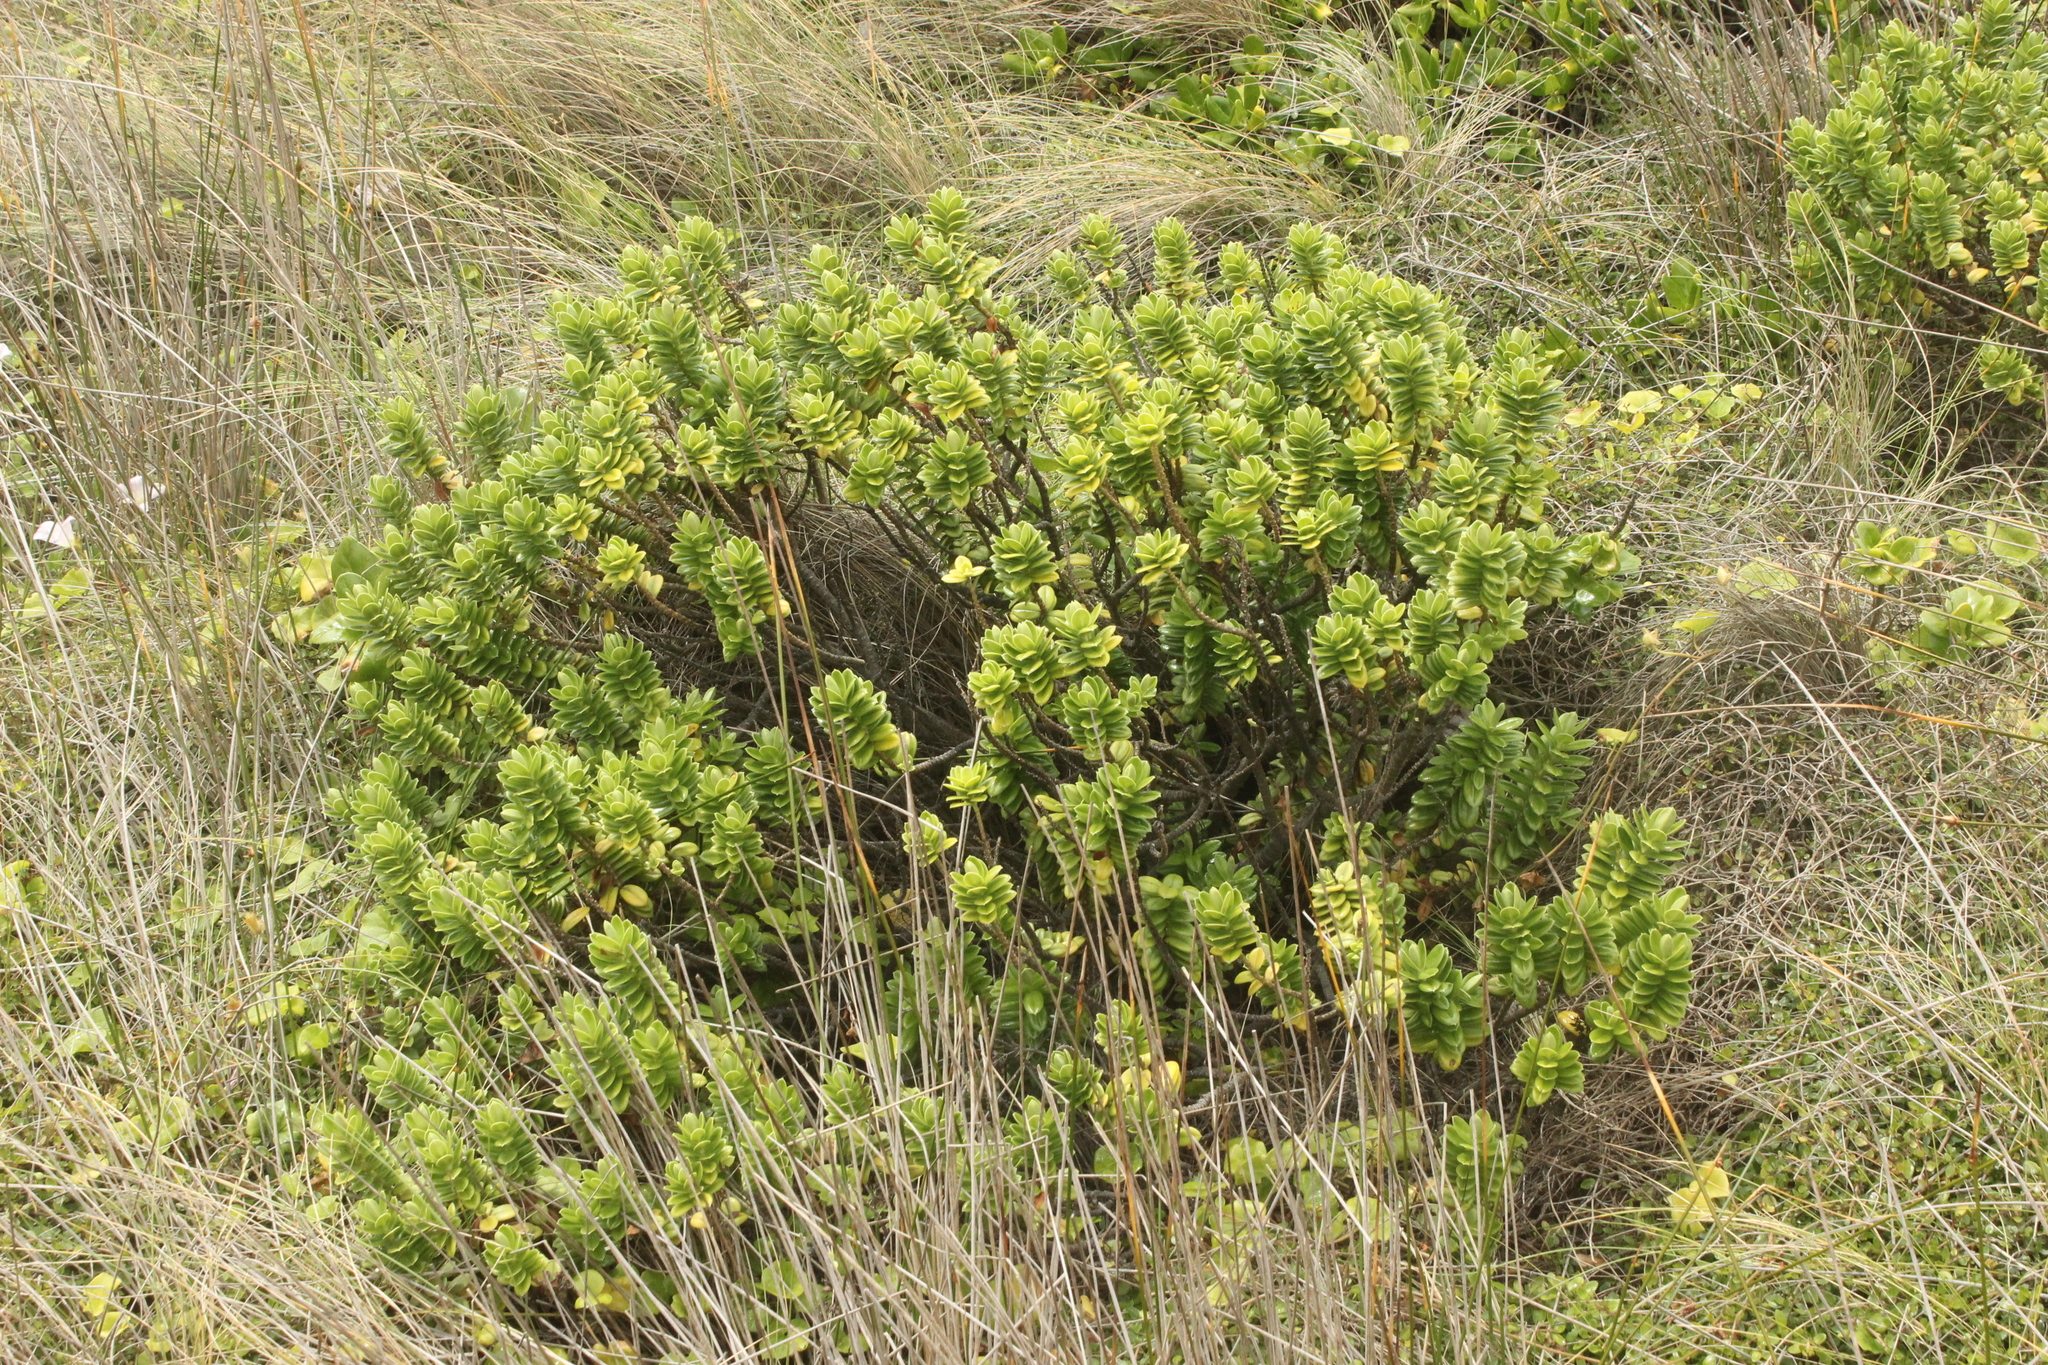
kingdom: Plantae
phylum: Tracheophyta
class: Magnoliopsida
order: Lamiales
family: Plantaginaceae
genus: Veronica
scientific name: Veronica elliptica
